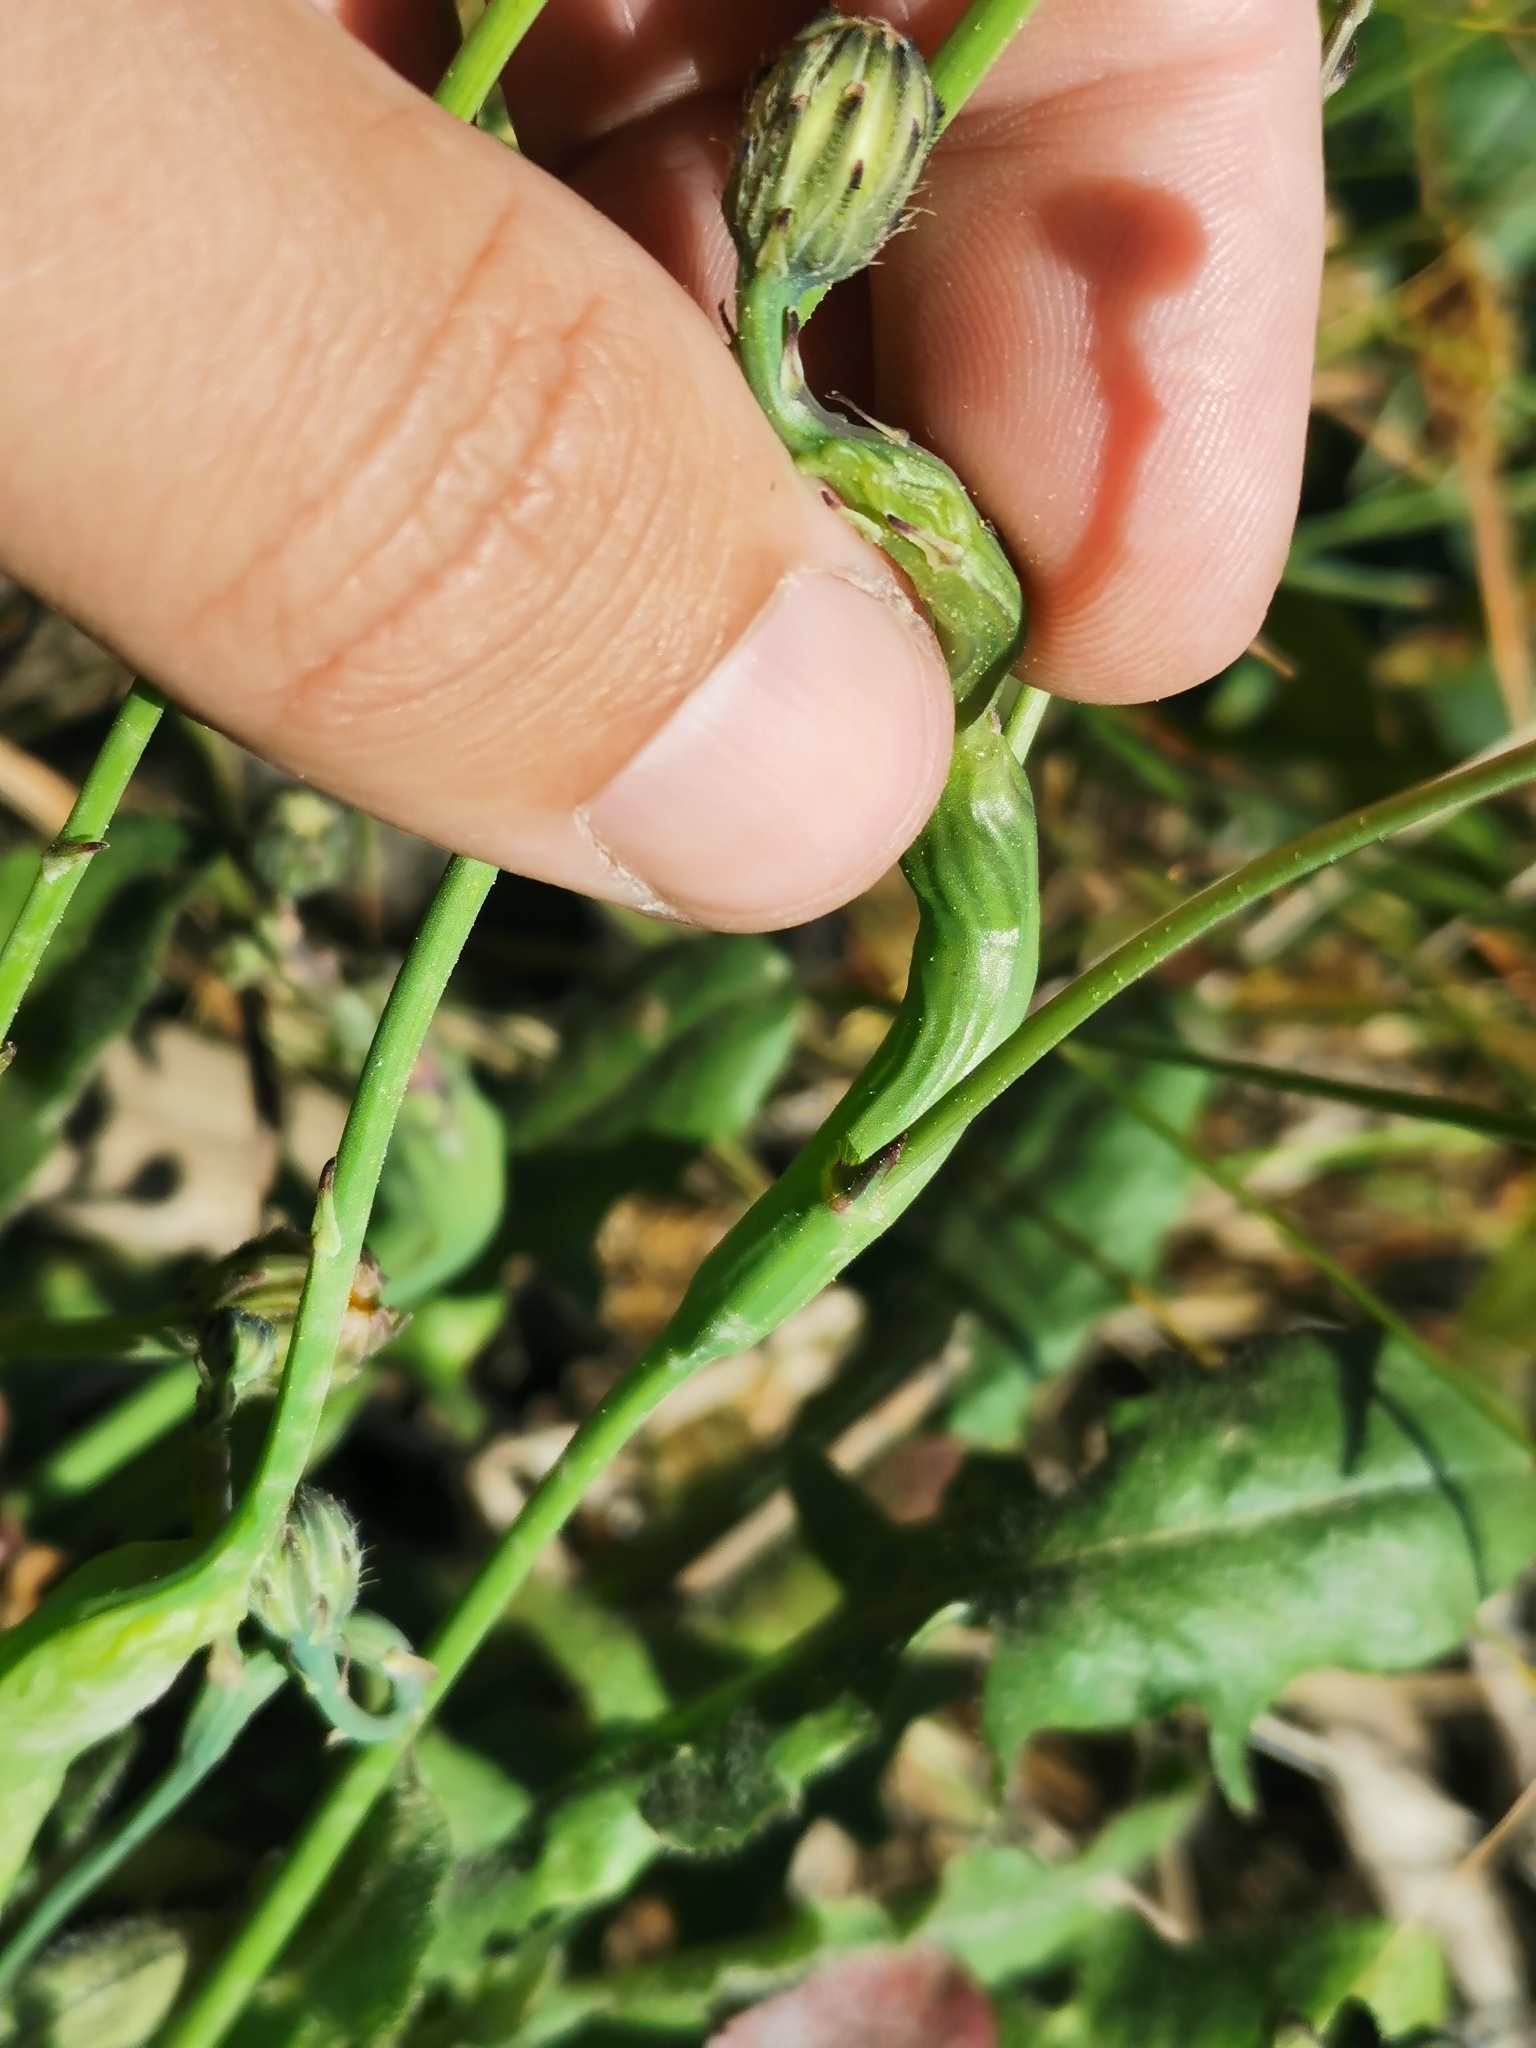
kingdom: Animalia
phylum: Arthropoda
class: Insecta
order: Hymenoptera
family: Cynipidae
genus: Phanacis
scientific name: Phanacis hypochoeridis
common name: Gall wasp
